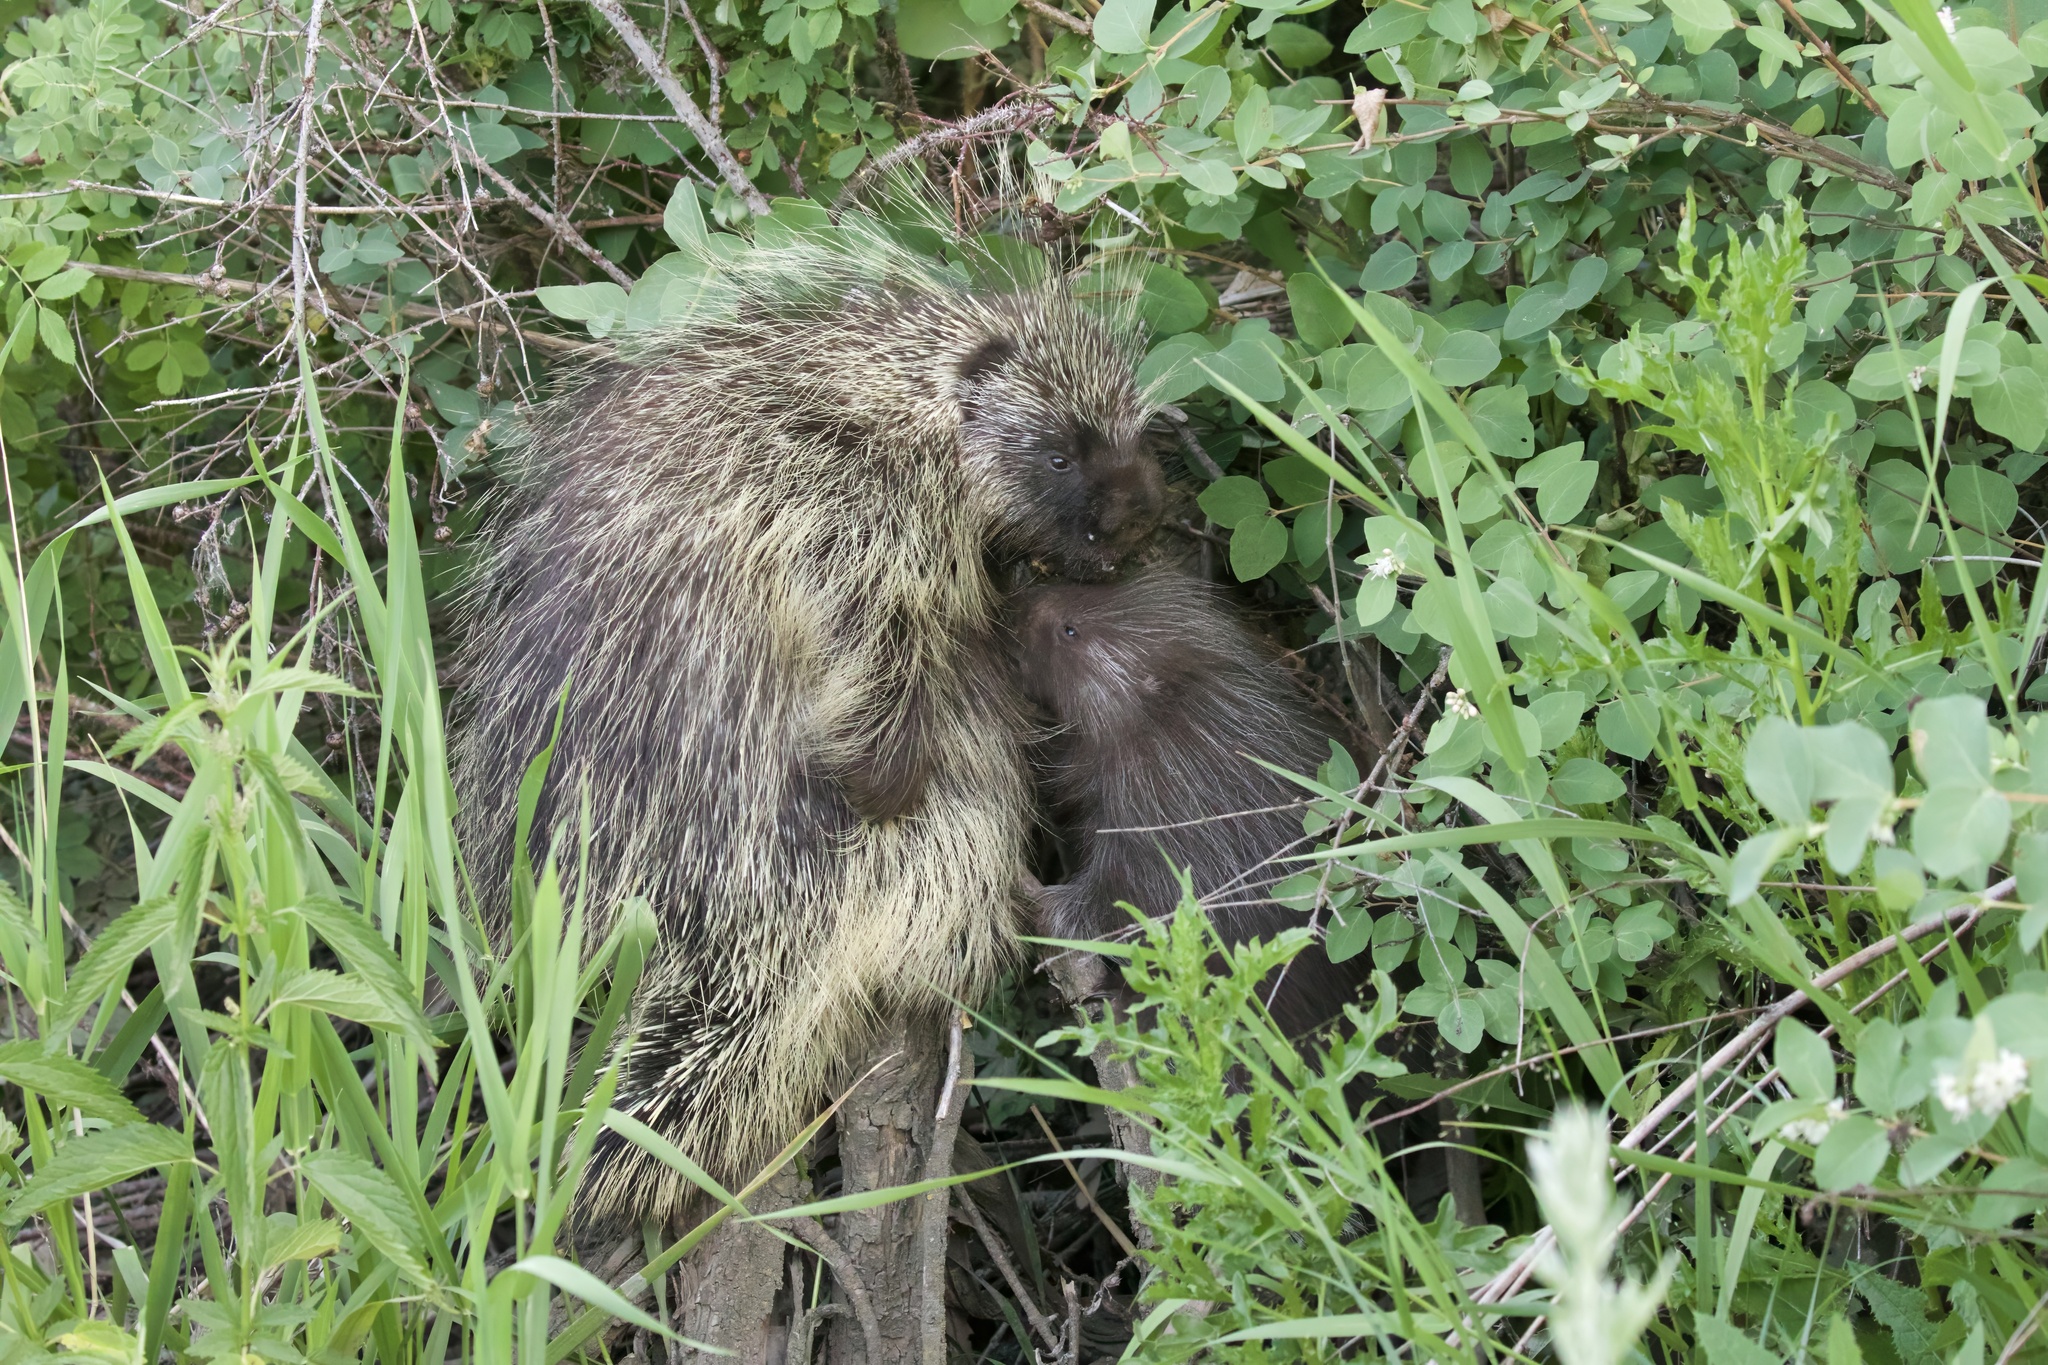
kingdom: Animalia
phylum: Chordata
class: Mammalia
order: Rodentia
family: Erethizontidae
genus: Erethizon
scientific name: Erethizon dorsatus
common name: North american porcupine
